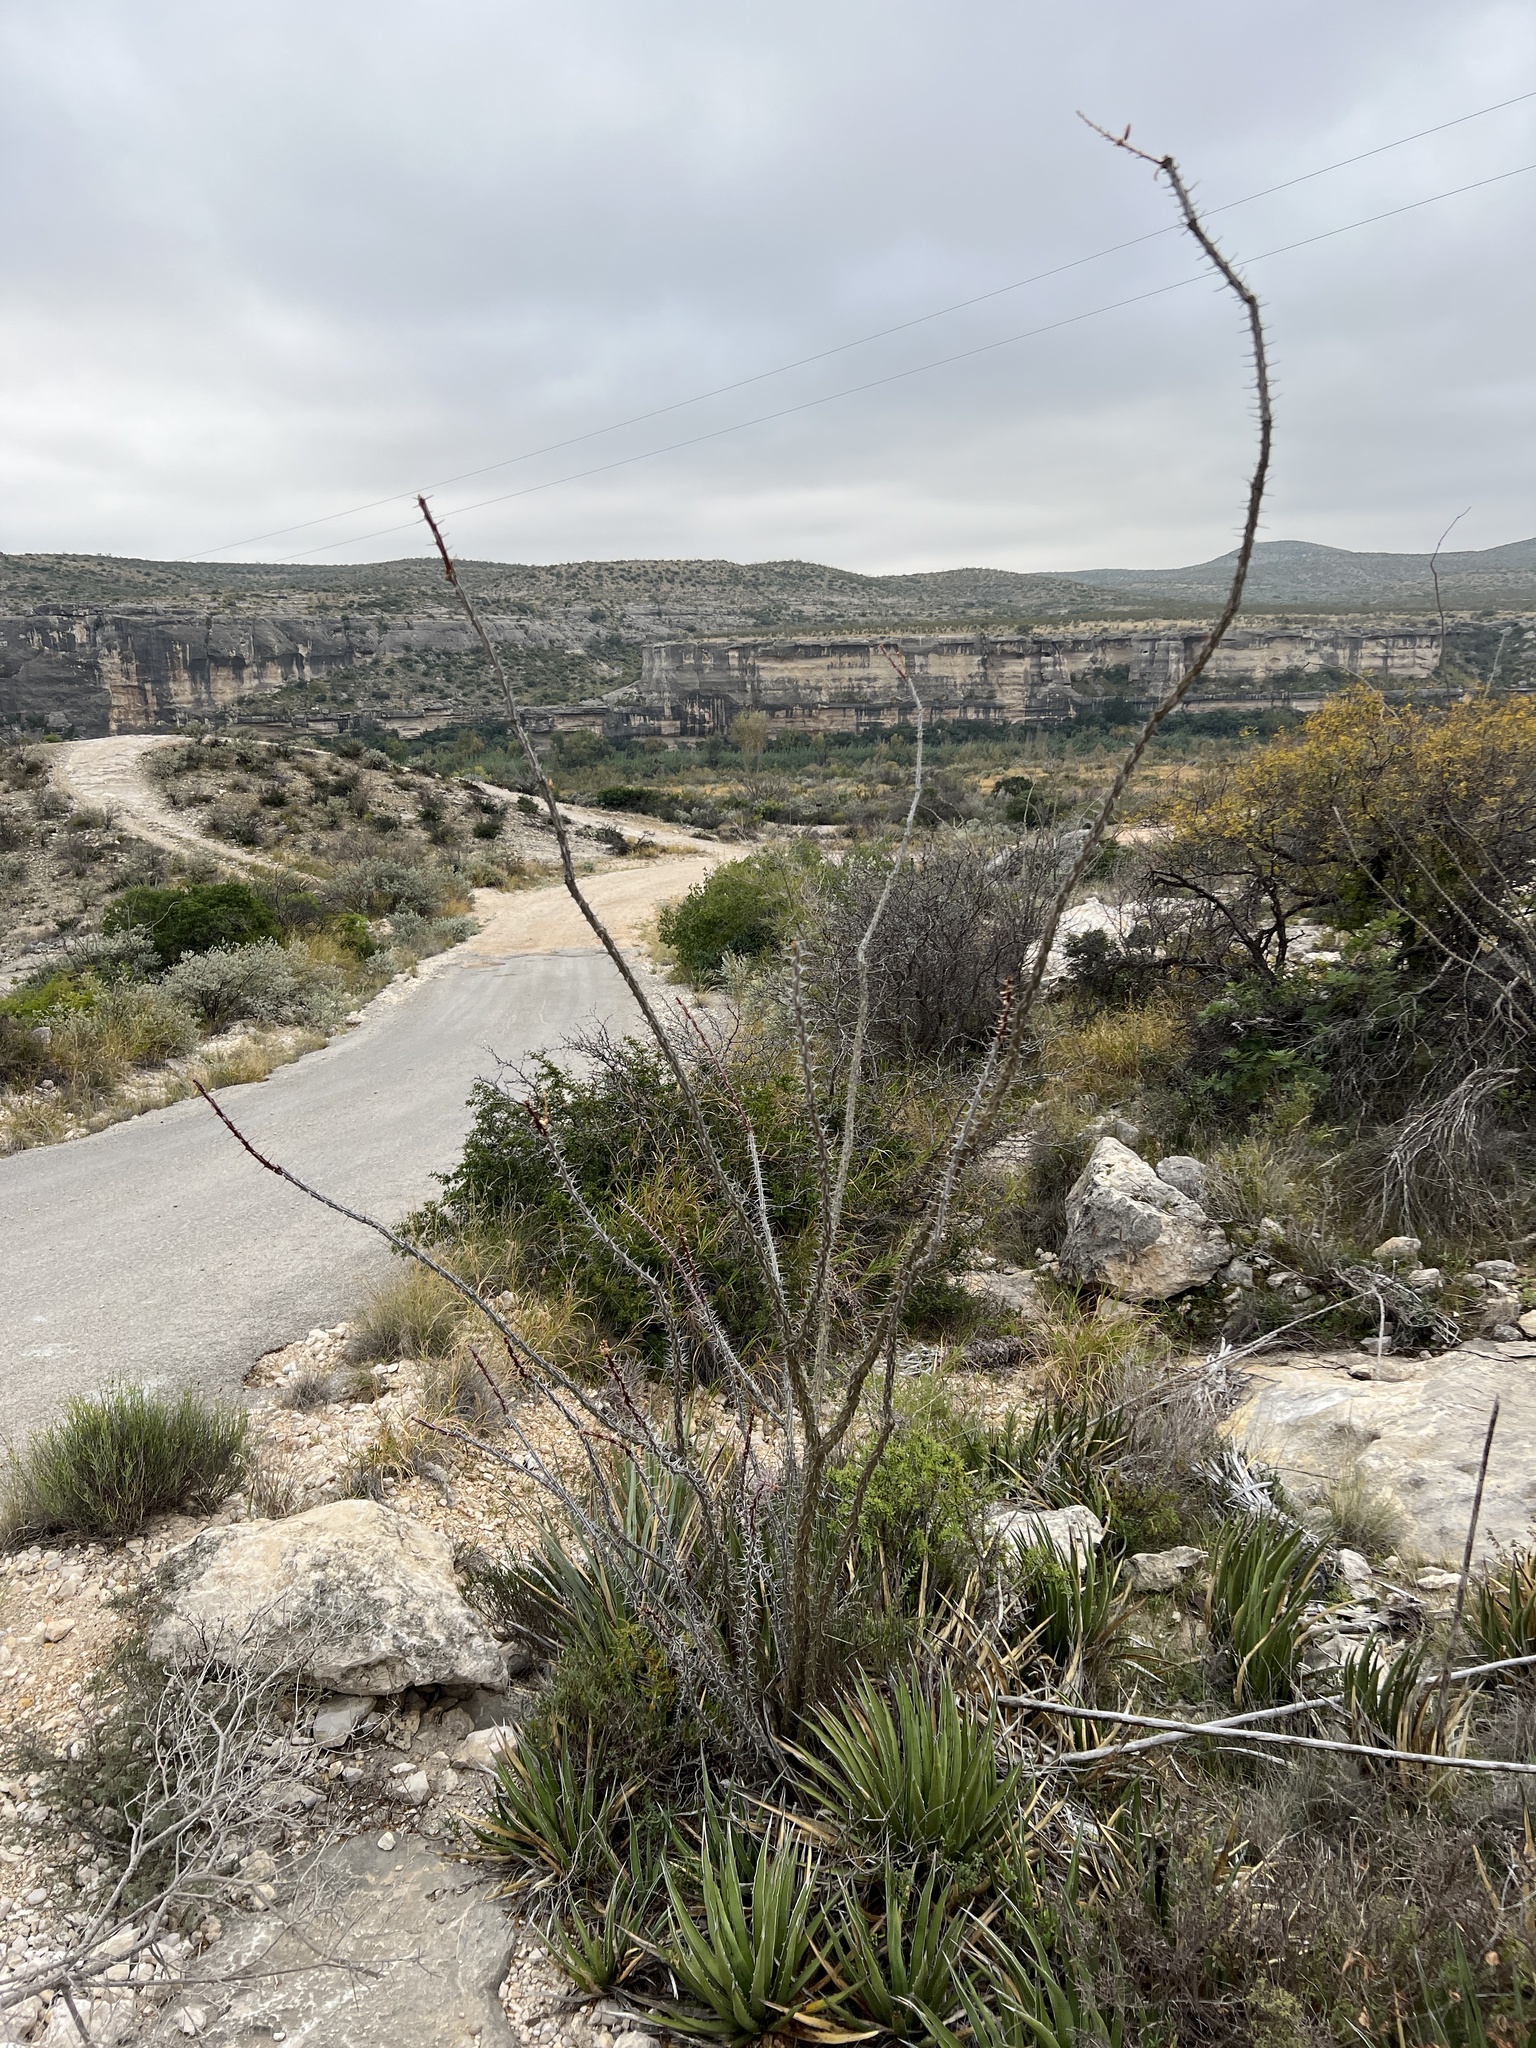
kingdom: Plantae
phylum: Tracheophyta
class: Magnoliopsida
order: Ericales
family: Fouquieriaceae
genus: Fouquieria
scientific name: Fouquieria splendens
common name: Vine-cactus
